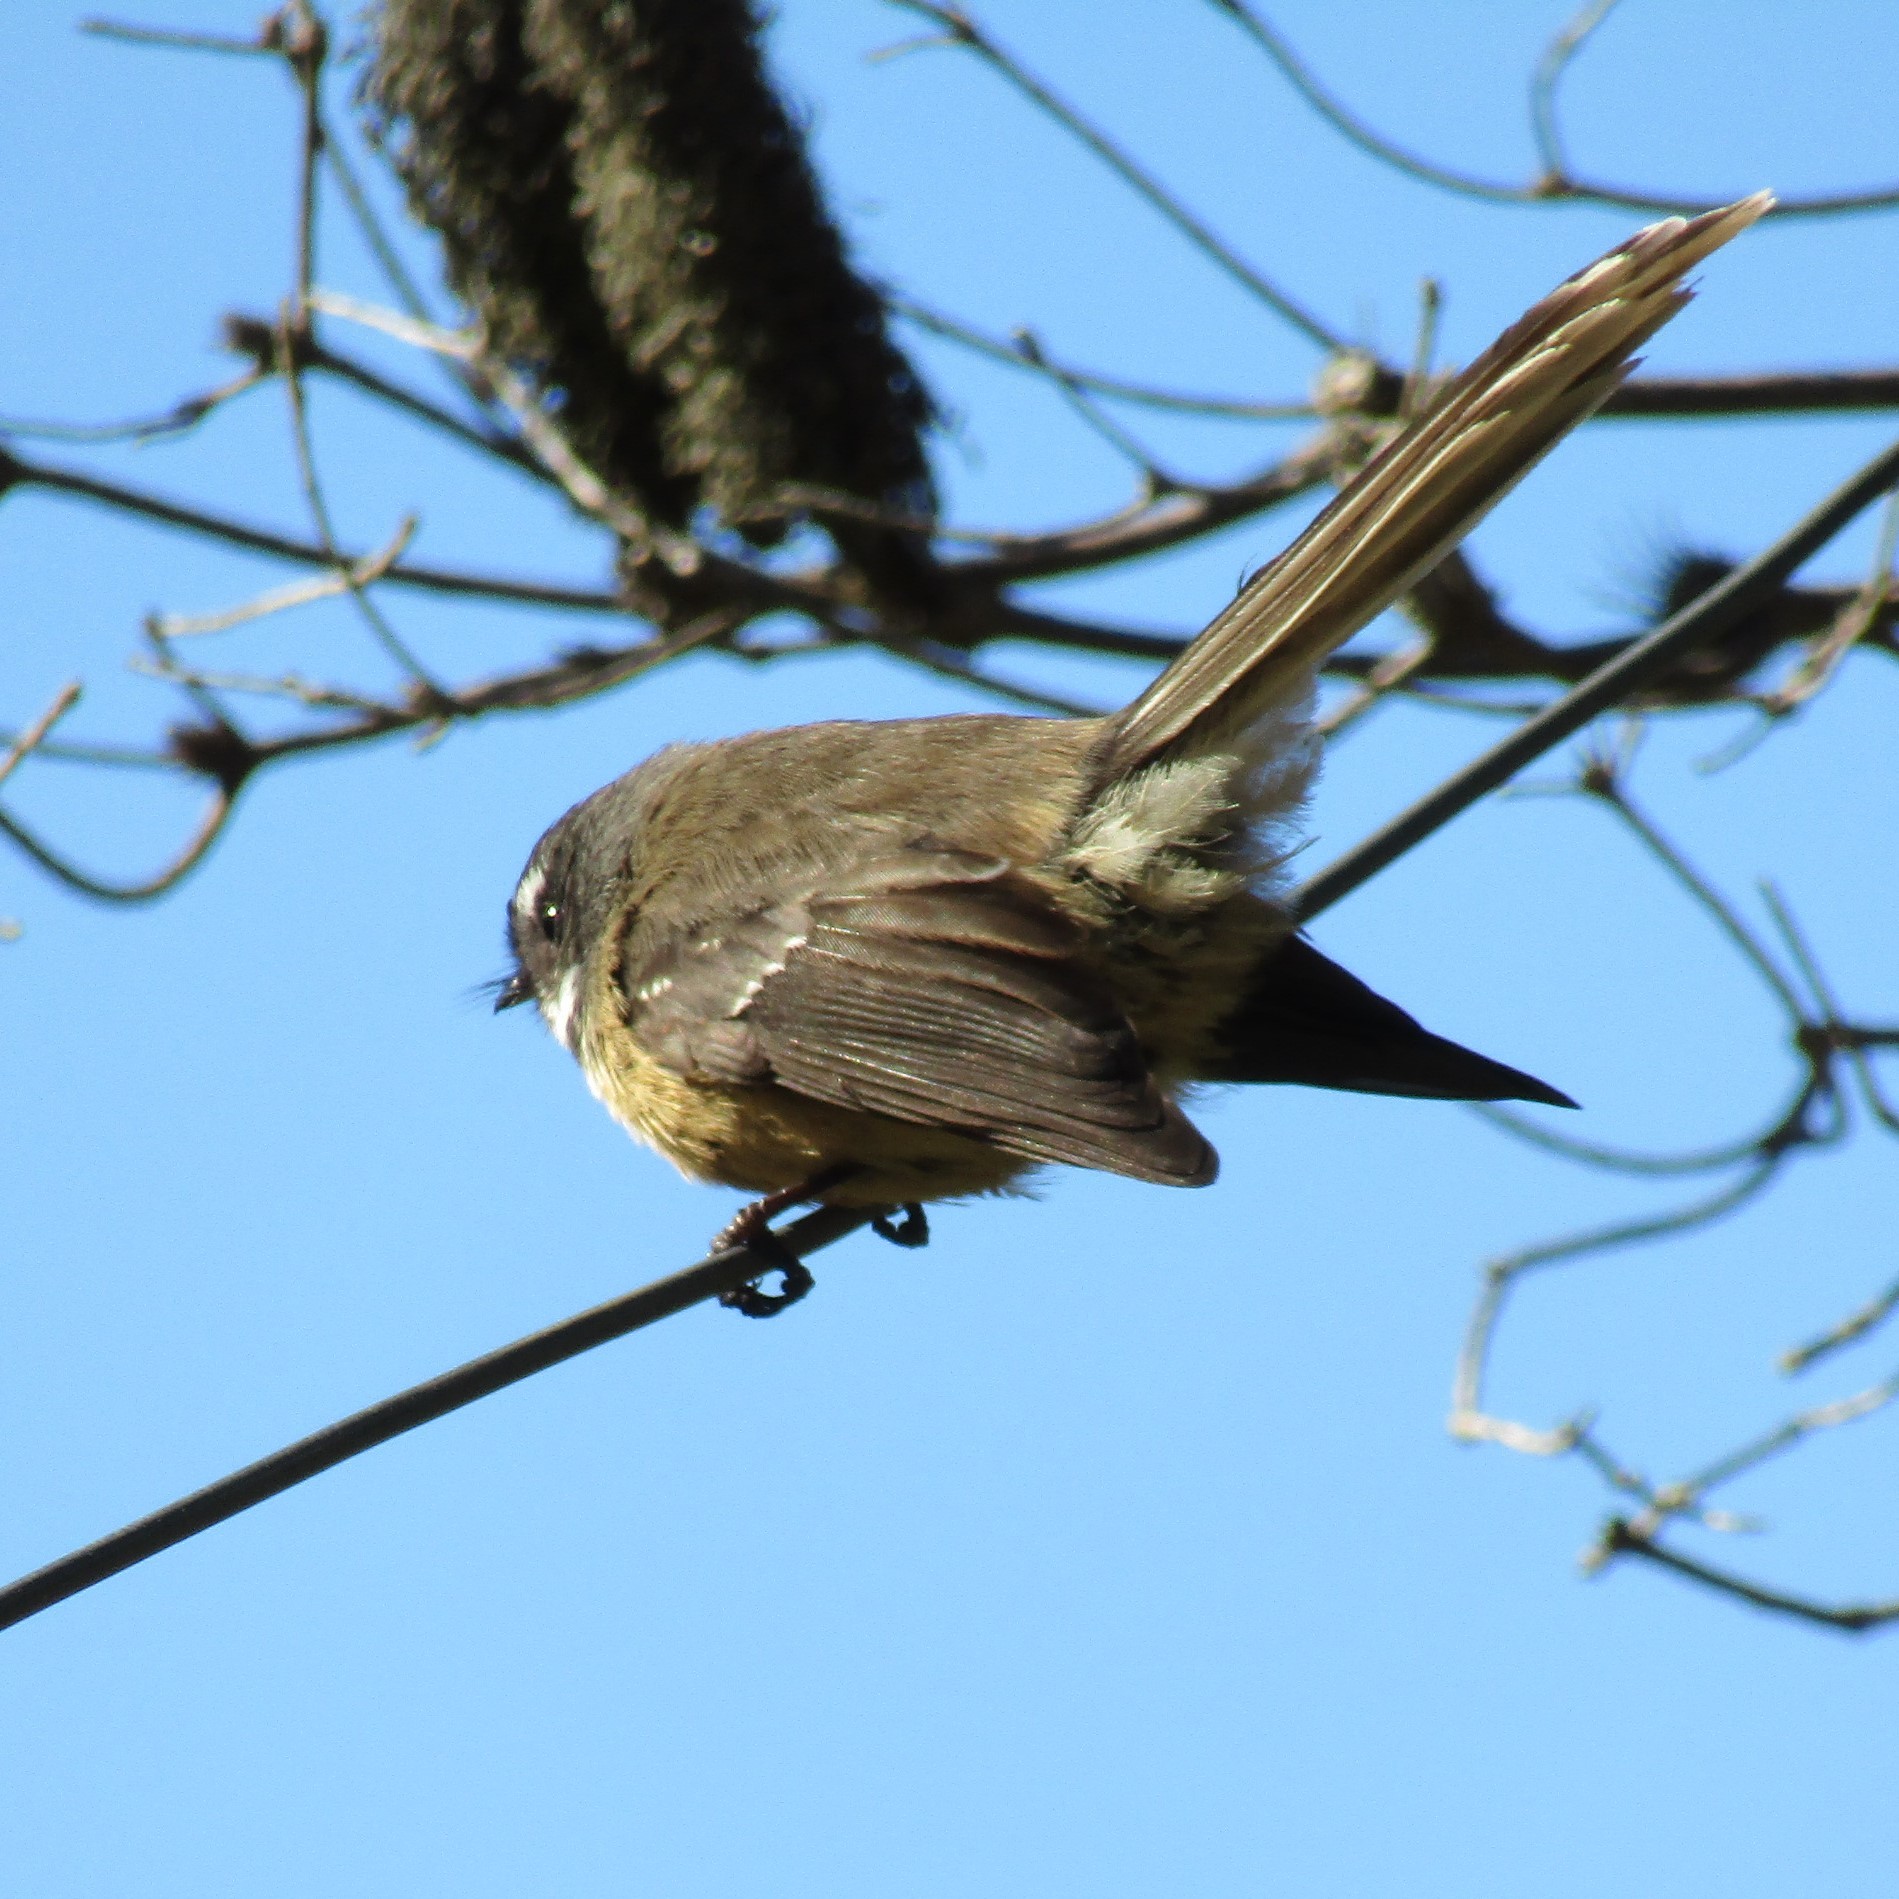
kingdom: Animalia
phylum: Chordata
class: Aves
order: Passeriformes
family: Rhipiduridae
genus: Rhipidura
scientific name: Rhipidura fuliginosa
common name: New zealand fantail
